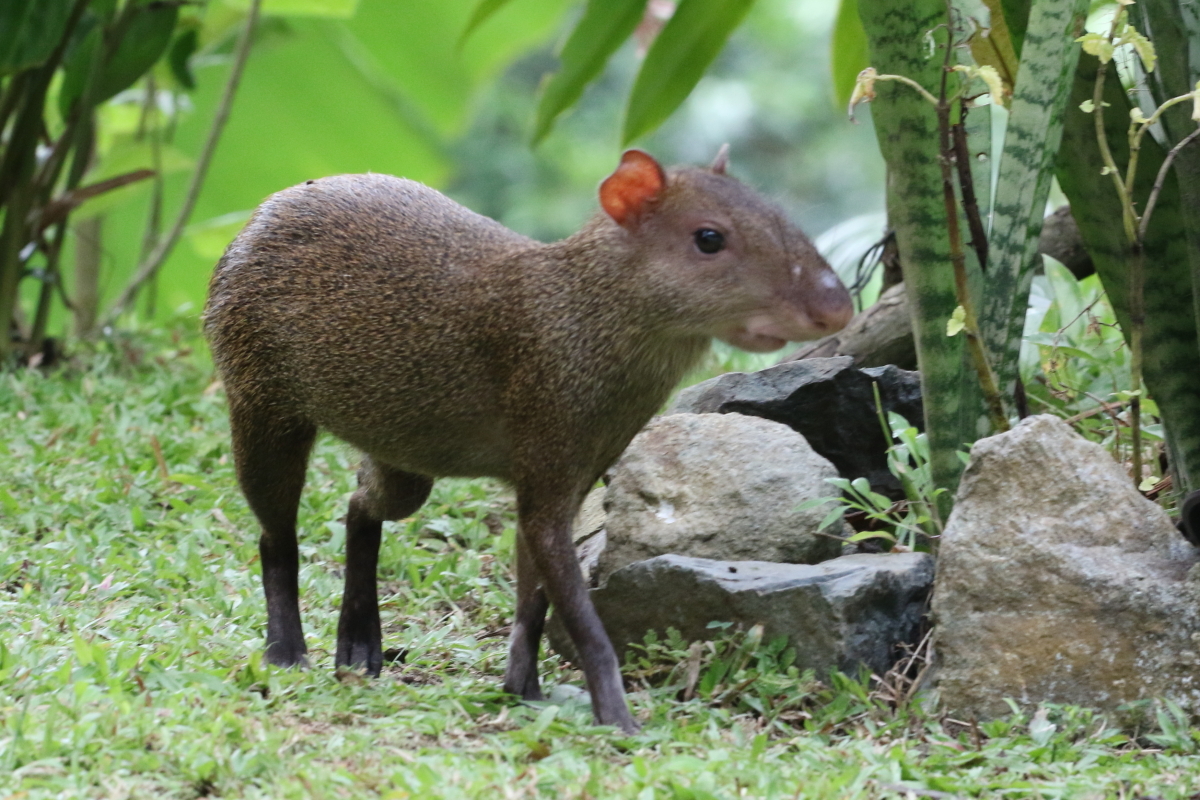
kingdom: Animalia
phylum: Chordata
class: Mammalia
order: Rodentia
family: Dasyproctidae
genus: Dasyprocta
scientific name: Dasyprocta punctata
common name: Central american agouti
